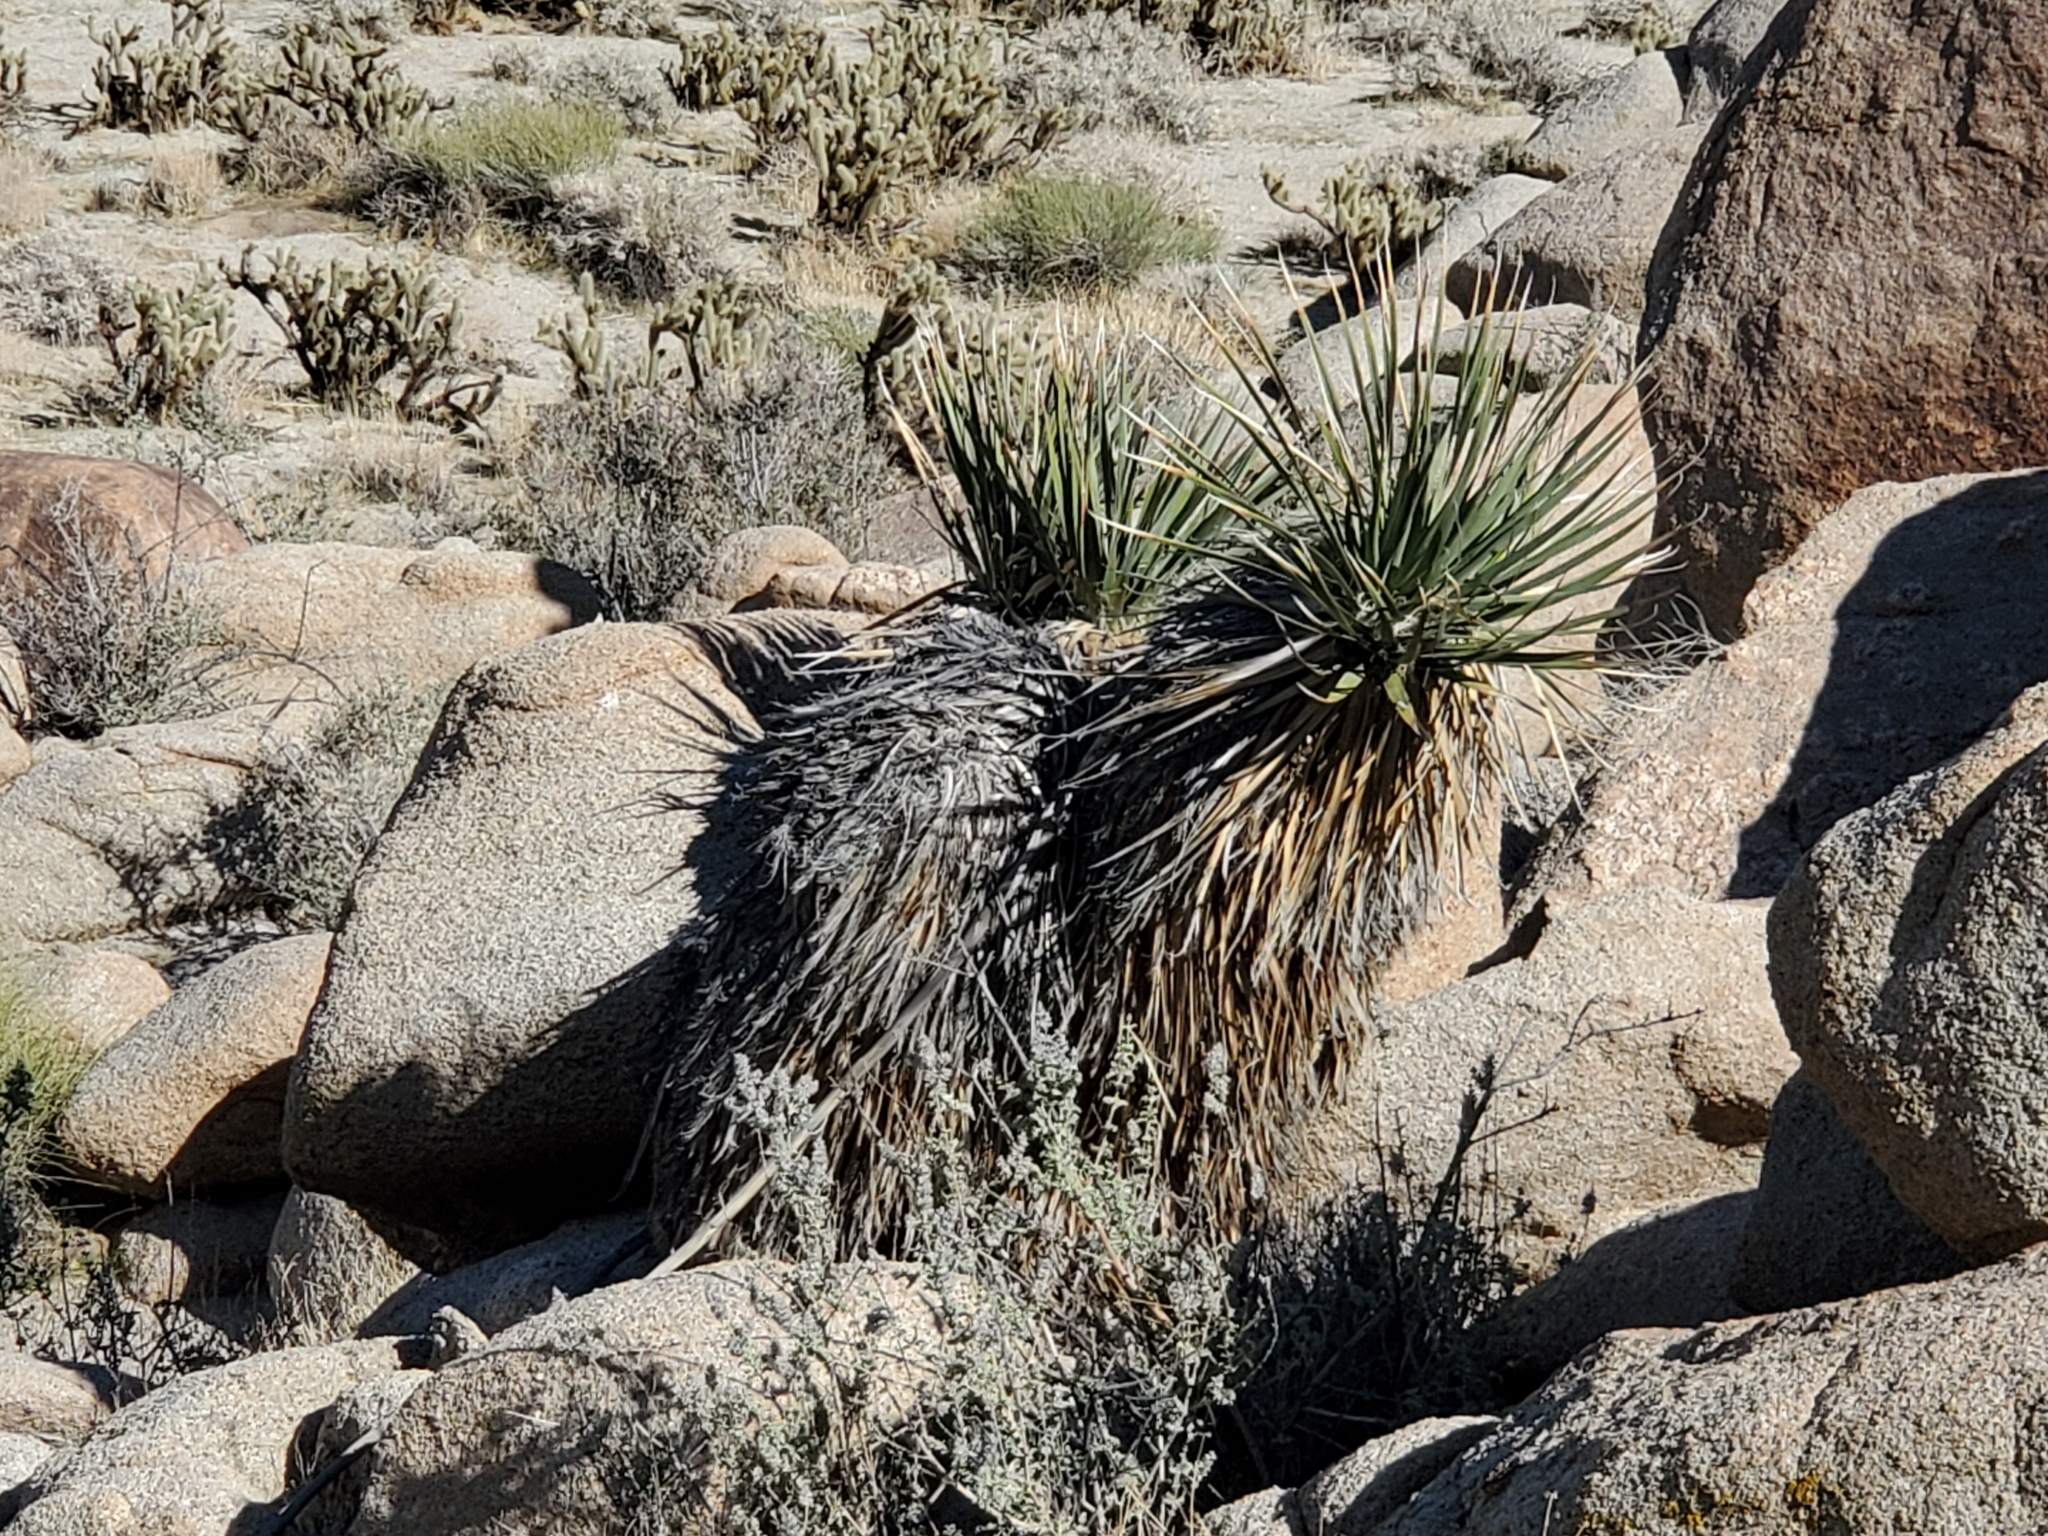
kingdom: Plantae
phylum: Tracheophyta
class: Liliopsida
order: Asparagales
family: Asparagaceae
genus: Nolina
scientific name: Nolina bigelovii
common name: Bigelow bear-grass
